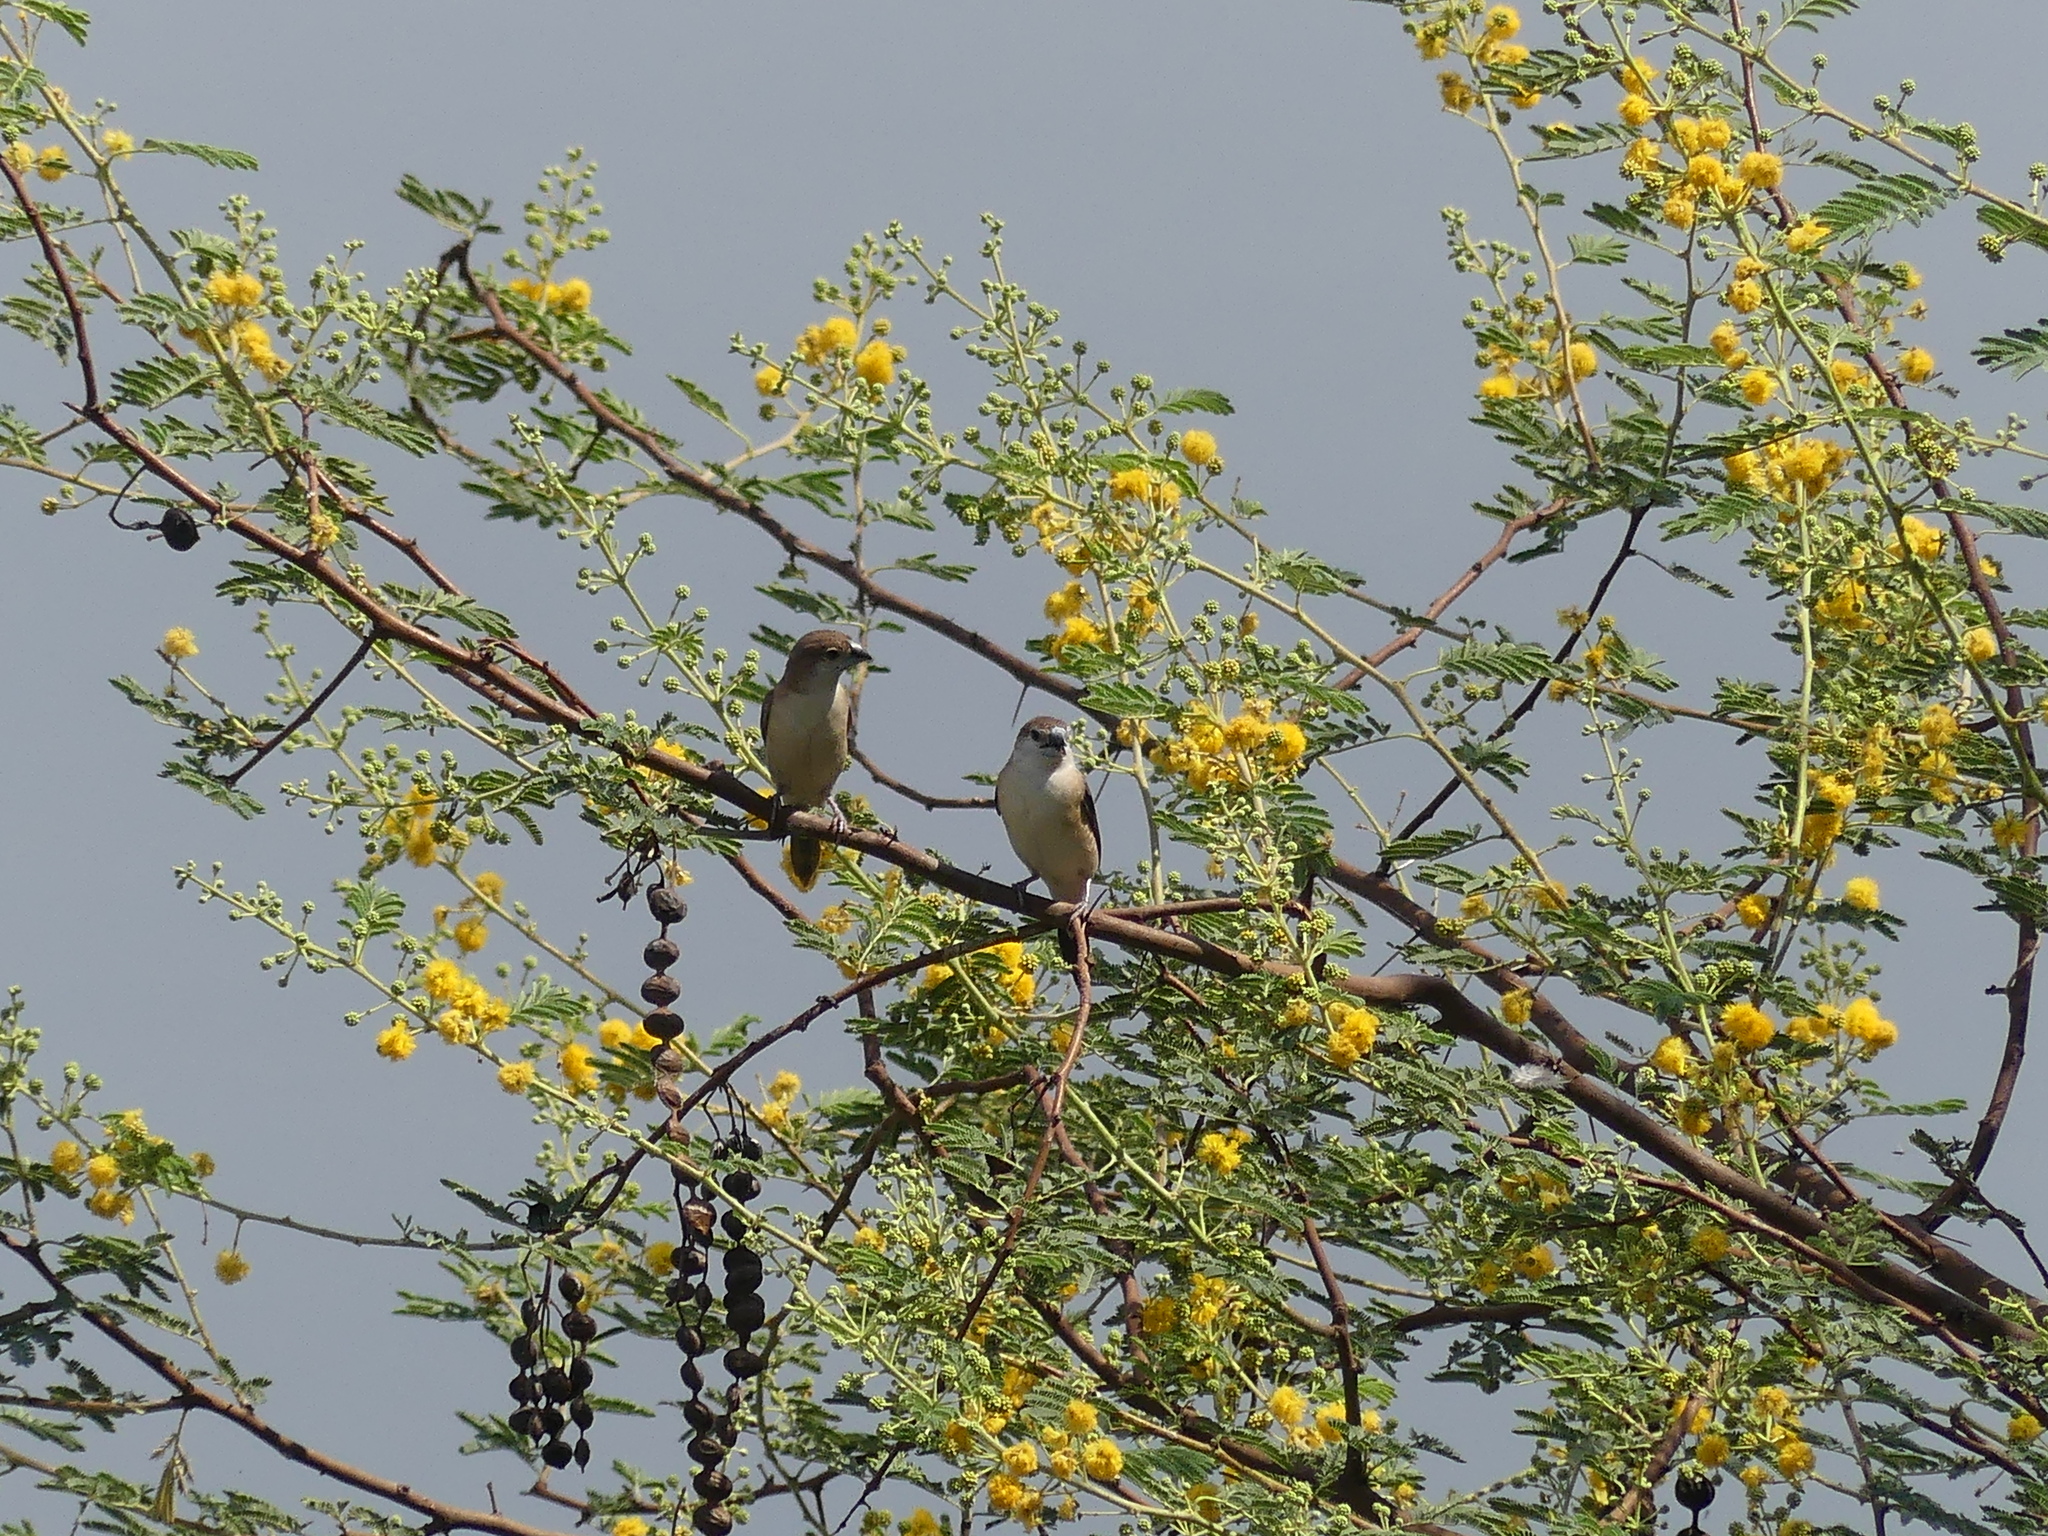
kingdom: Animalia
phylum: Chordata
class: Aves
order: Passeriformes
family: Estrildidae
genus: Euodice
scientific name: Euodice malabarica
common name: Indian silverbill
